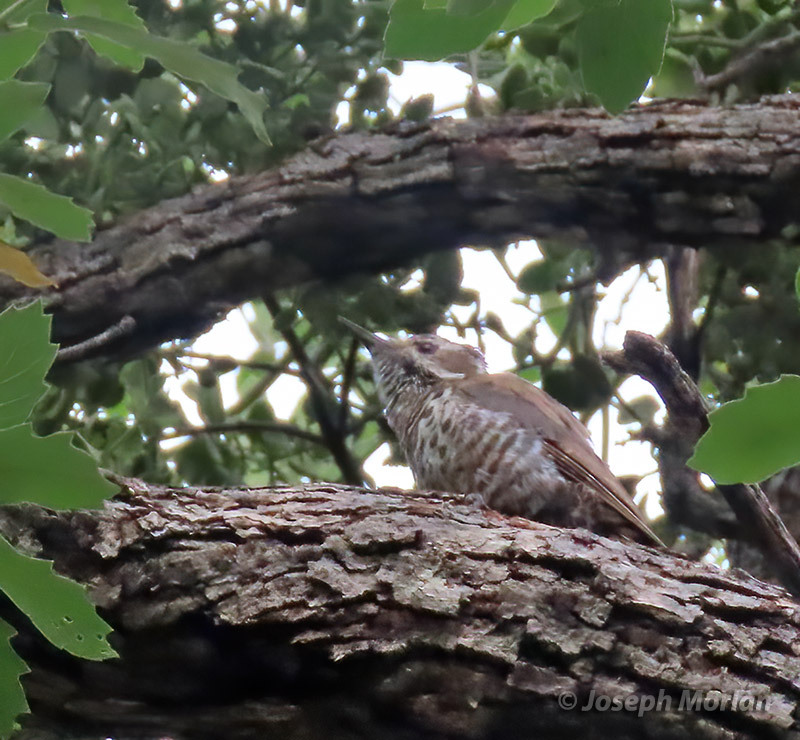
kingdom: Animalia
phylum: Chordata
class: Aves
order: Piciformes
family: Picidae
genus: Leuconotopicus
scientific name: Leuconotopicus arizonae
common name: Arizona woodpecker
